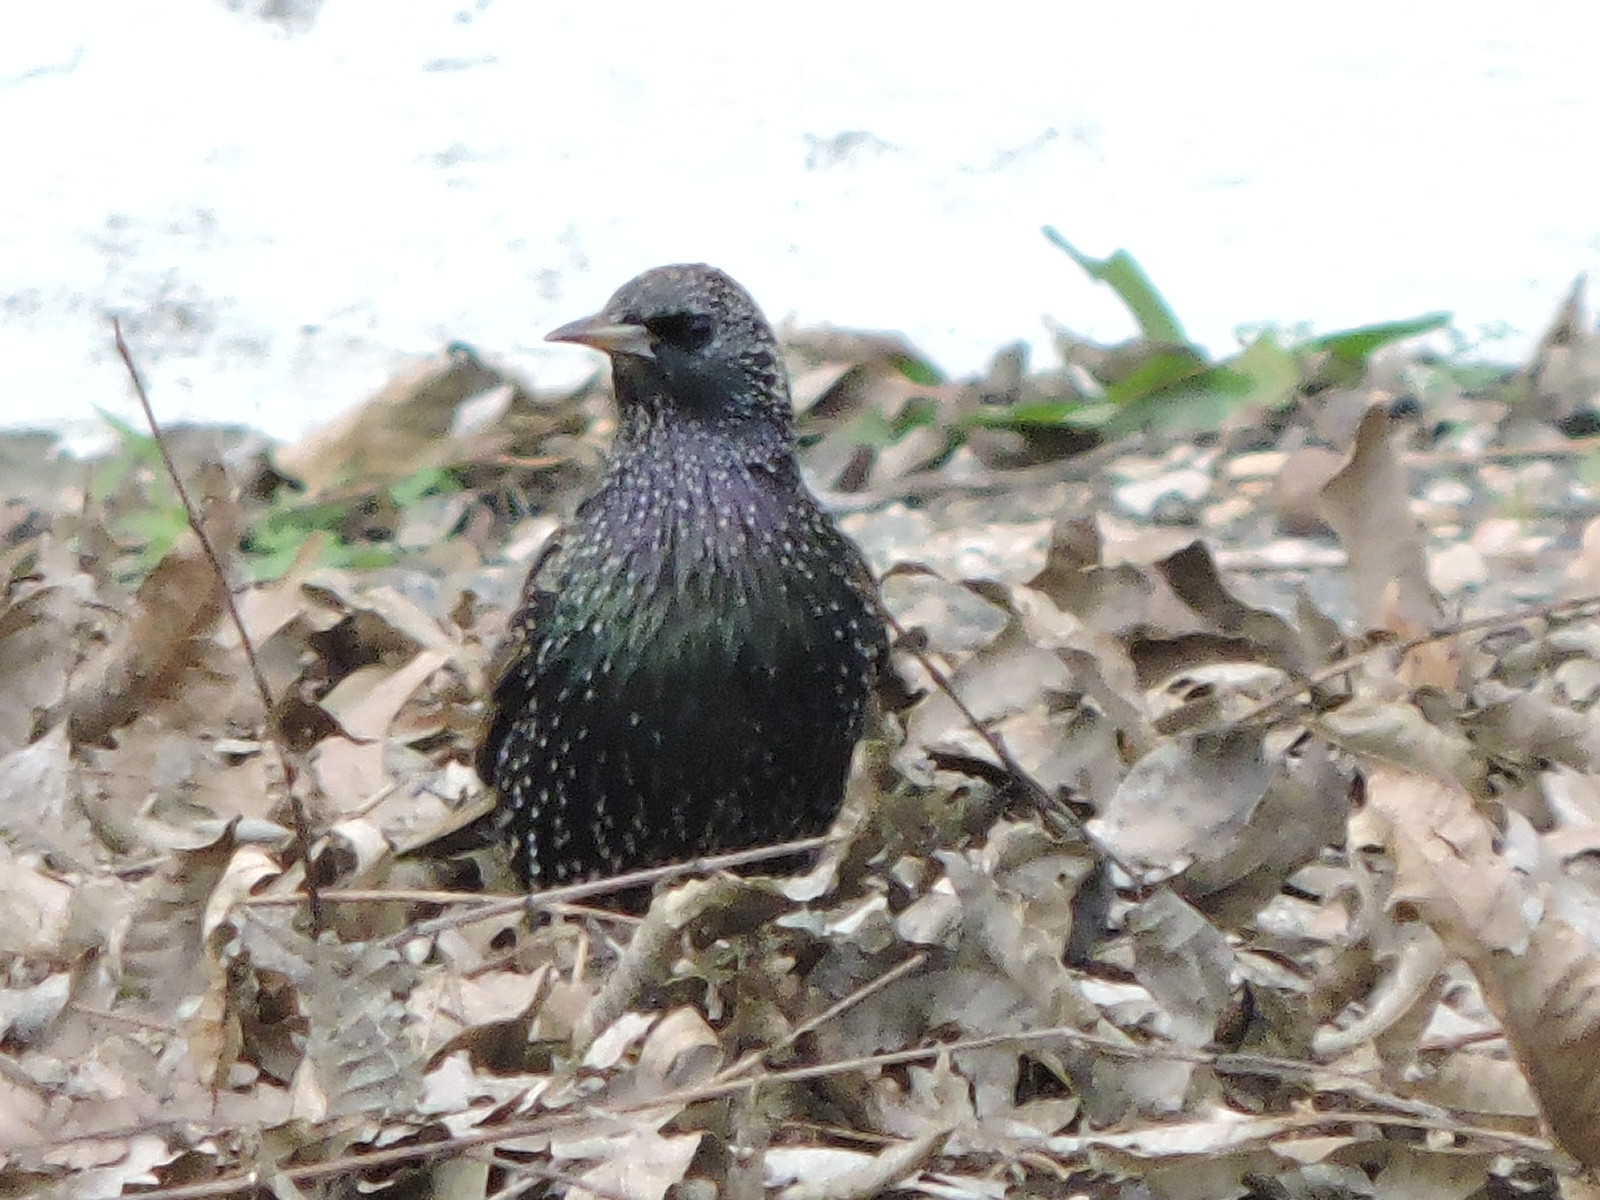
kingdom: Animalia
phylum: Chordata
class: Aves
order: Passeriformes
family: Sturnidae
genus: Sturnus
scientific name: Sturnus vulgaris
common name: Common starling
